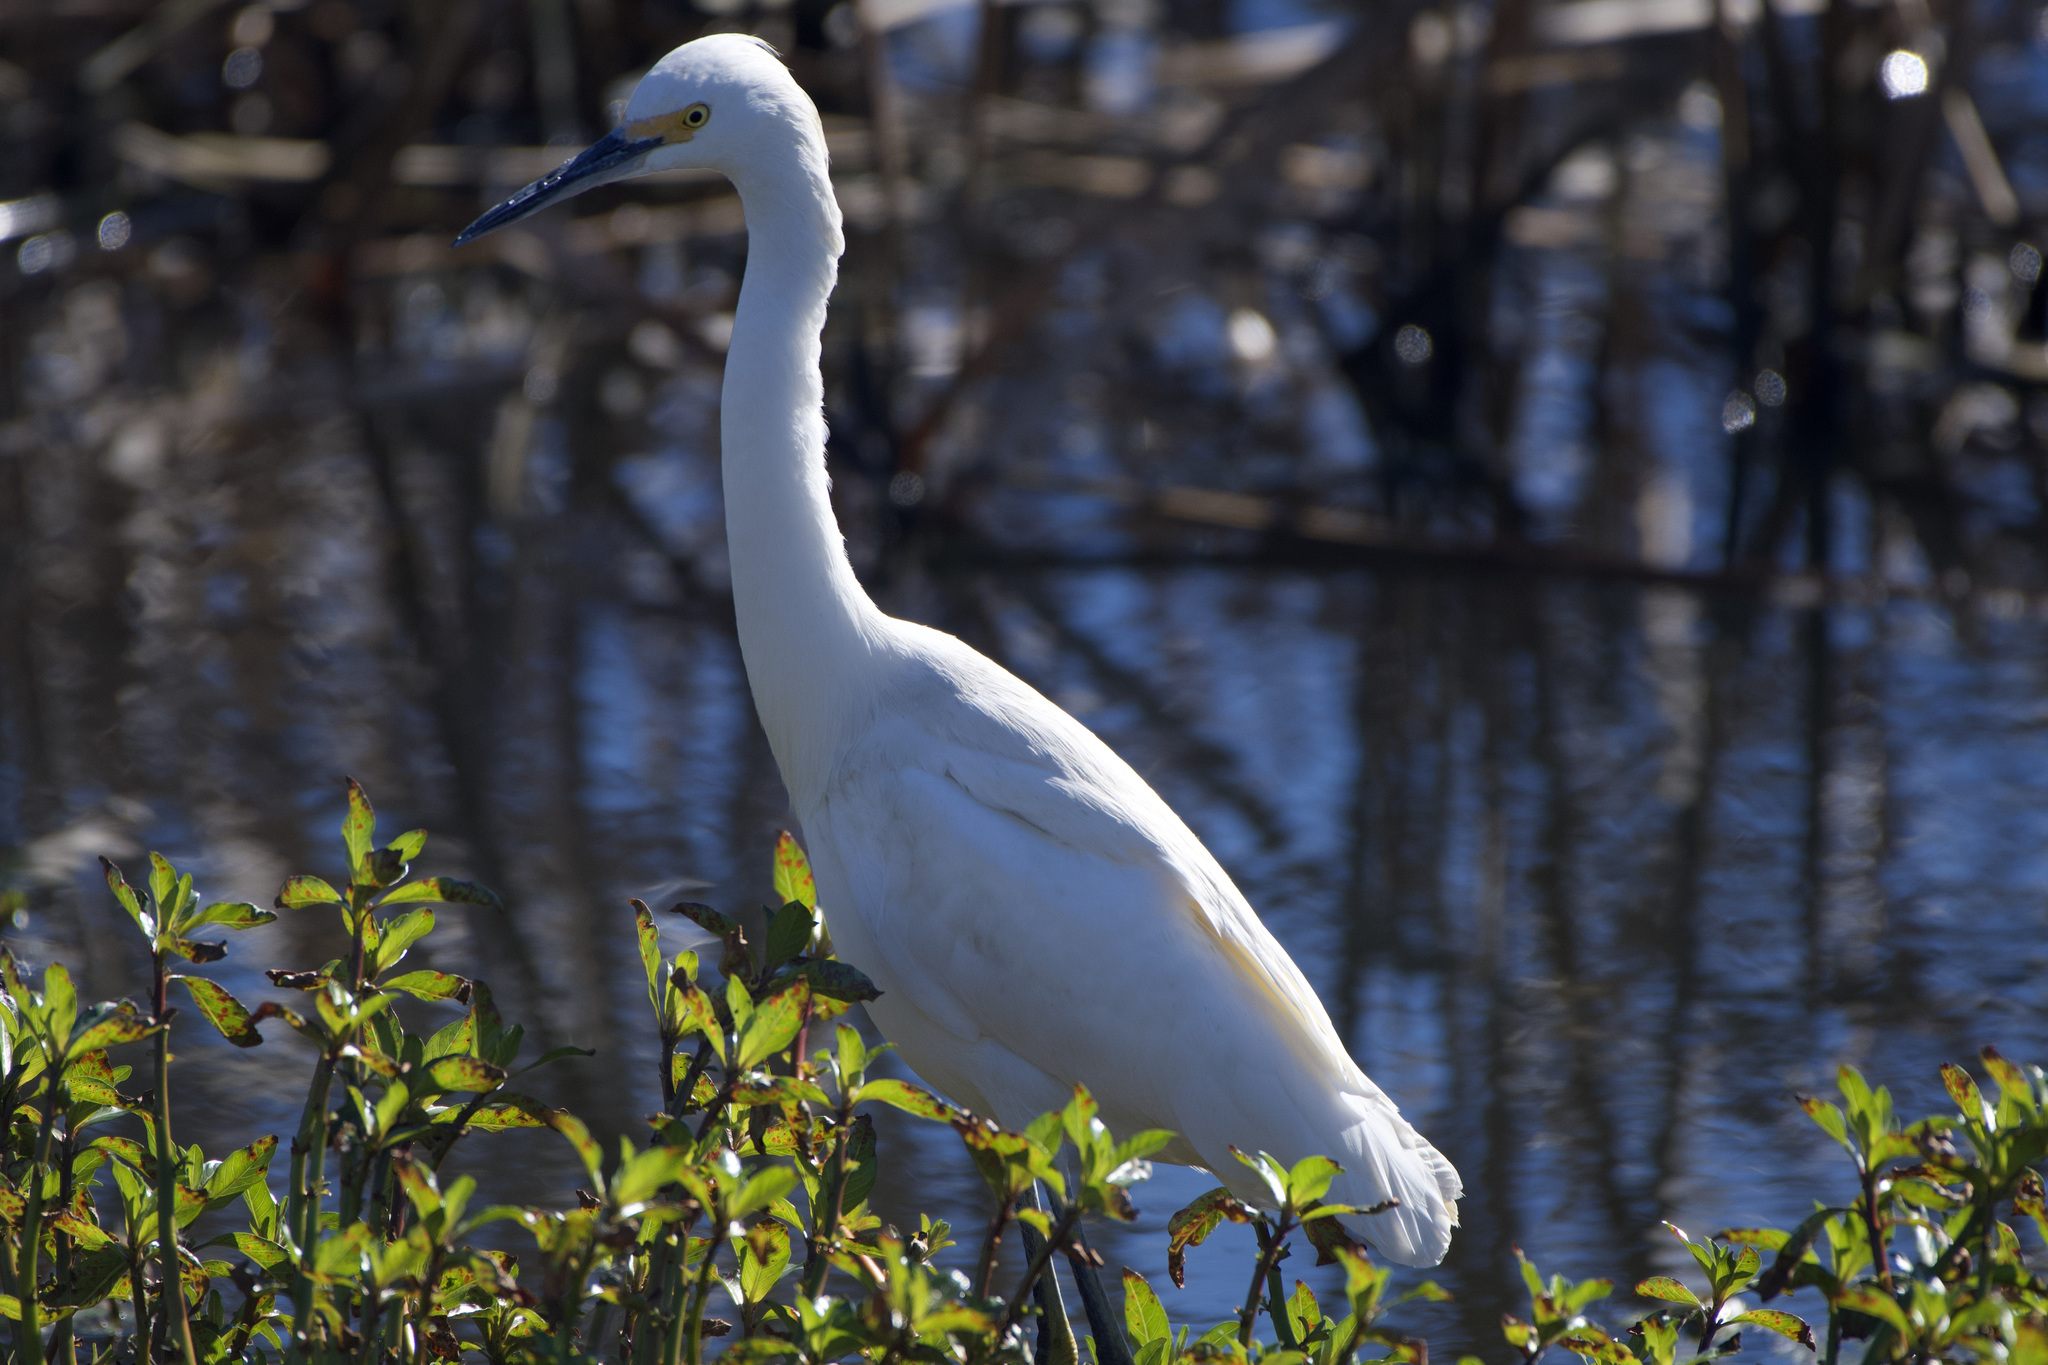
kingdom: Animalia
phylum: Chordata
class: Aves
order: Pelecaniformes
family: Ardeidae
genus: Egretta
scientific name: Egretta thula
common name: Snowy egret
